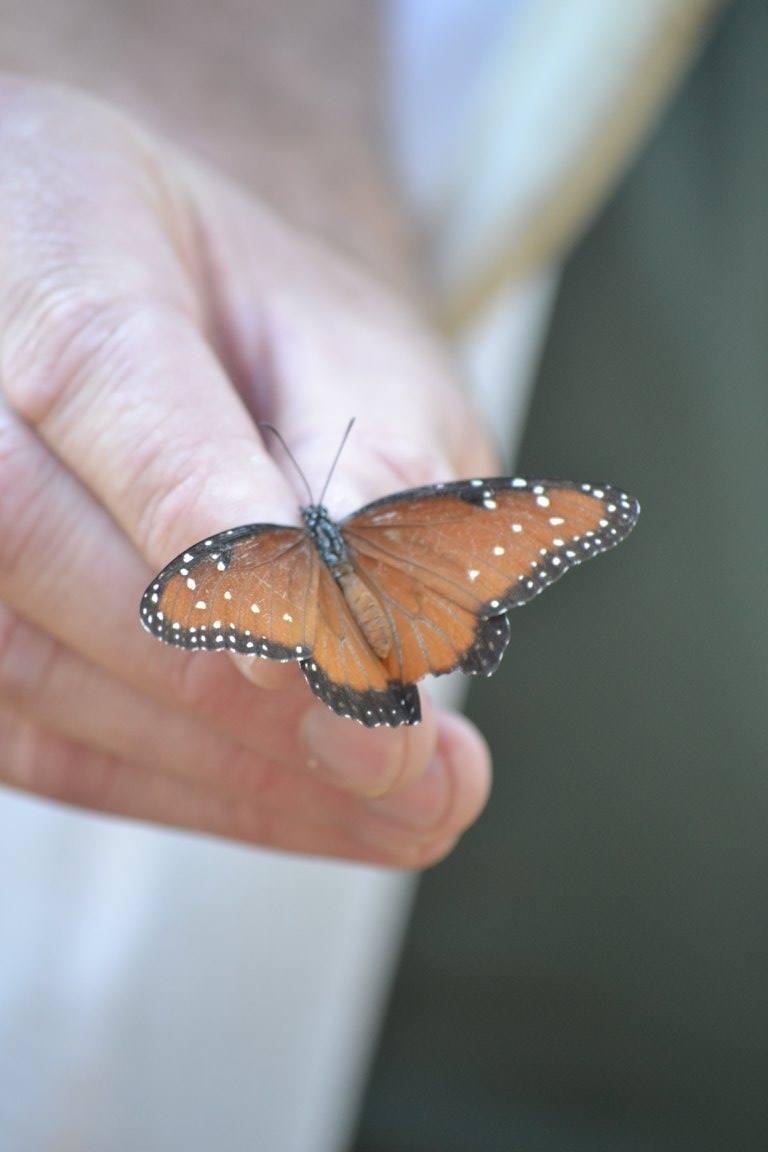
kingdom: Animalia
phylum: Arthropoda
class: Insecta
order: Lepidoptera
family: Nymphalidae
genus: Danaus
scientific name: Danaus gilippus
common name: Queen
